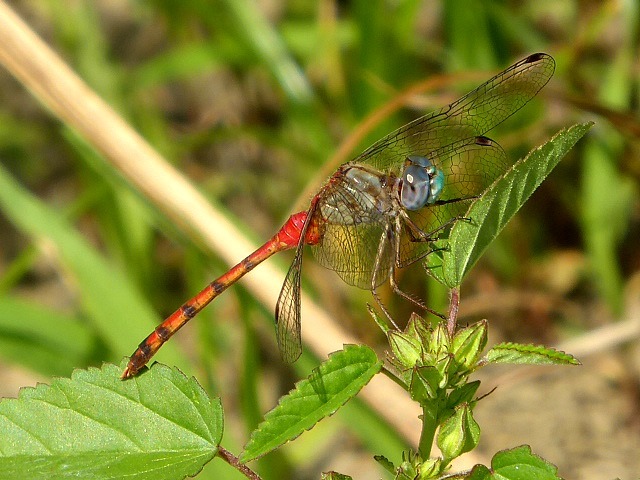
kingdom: Animalia
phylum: Arthropoda
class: Insecta
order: Odonata
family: Libellulidae
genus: Sympetrum
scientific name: Sympetrum ambiguum
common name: Blue-faced meadowhawk
